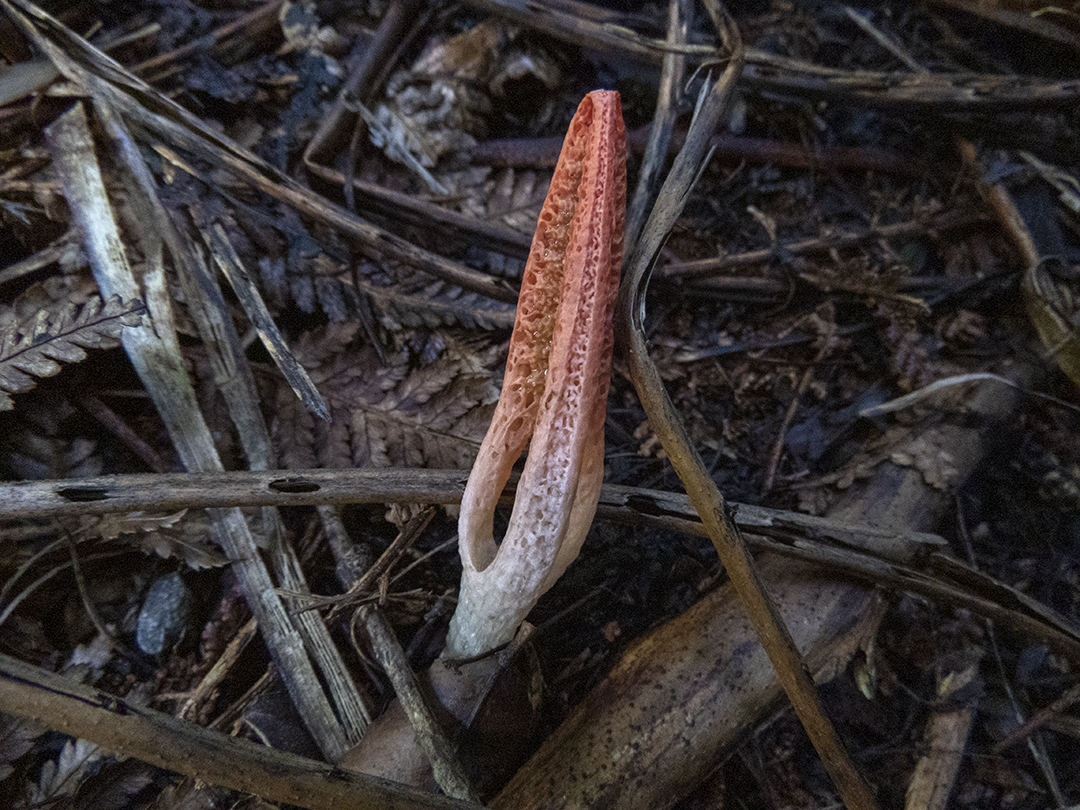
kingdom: Fungi
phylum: Basidiomycota
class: Agaricomycetes
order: Phallales
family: Phallaceae
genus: Pseudocolus
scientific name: Pseudocolus fusiformis
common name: Stinky squid
